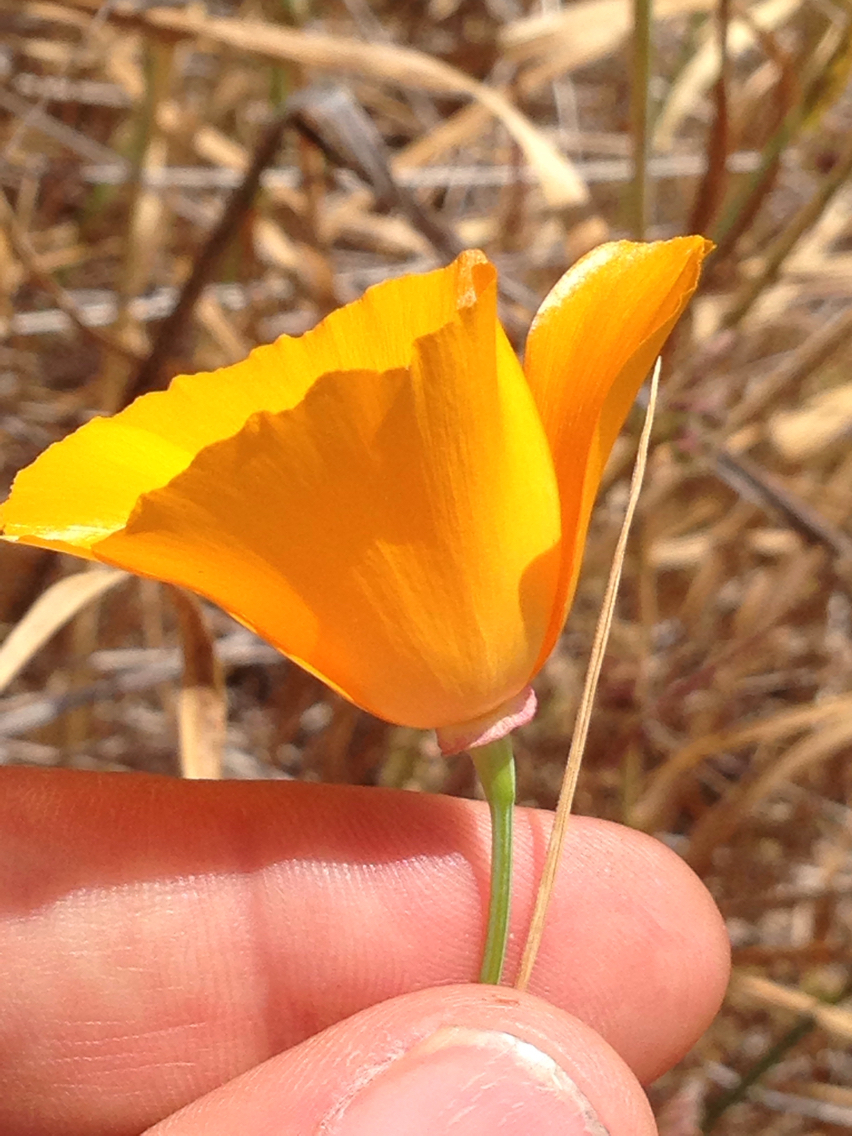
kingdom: Plantae
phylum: Tracheophyta
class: Magnoliopsida
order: Ranunculales
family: Papaveraceae
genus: Eschscholzia
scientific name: Eschscholzia californica
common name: California poppy
